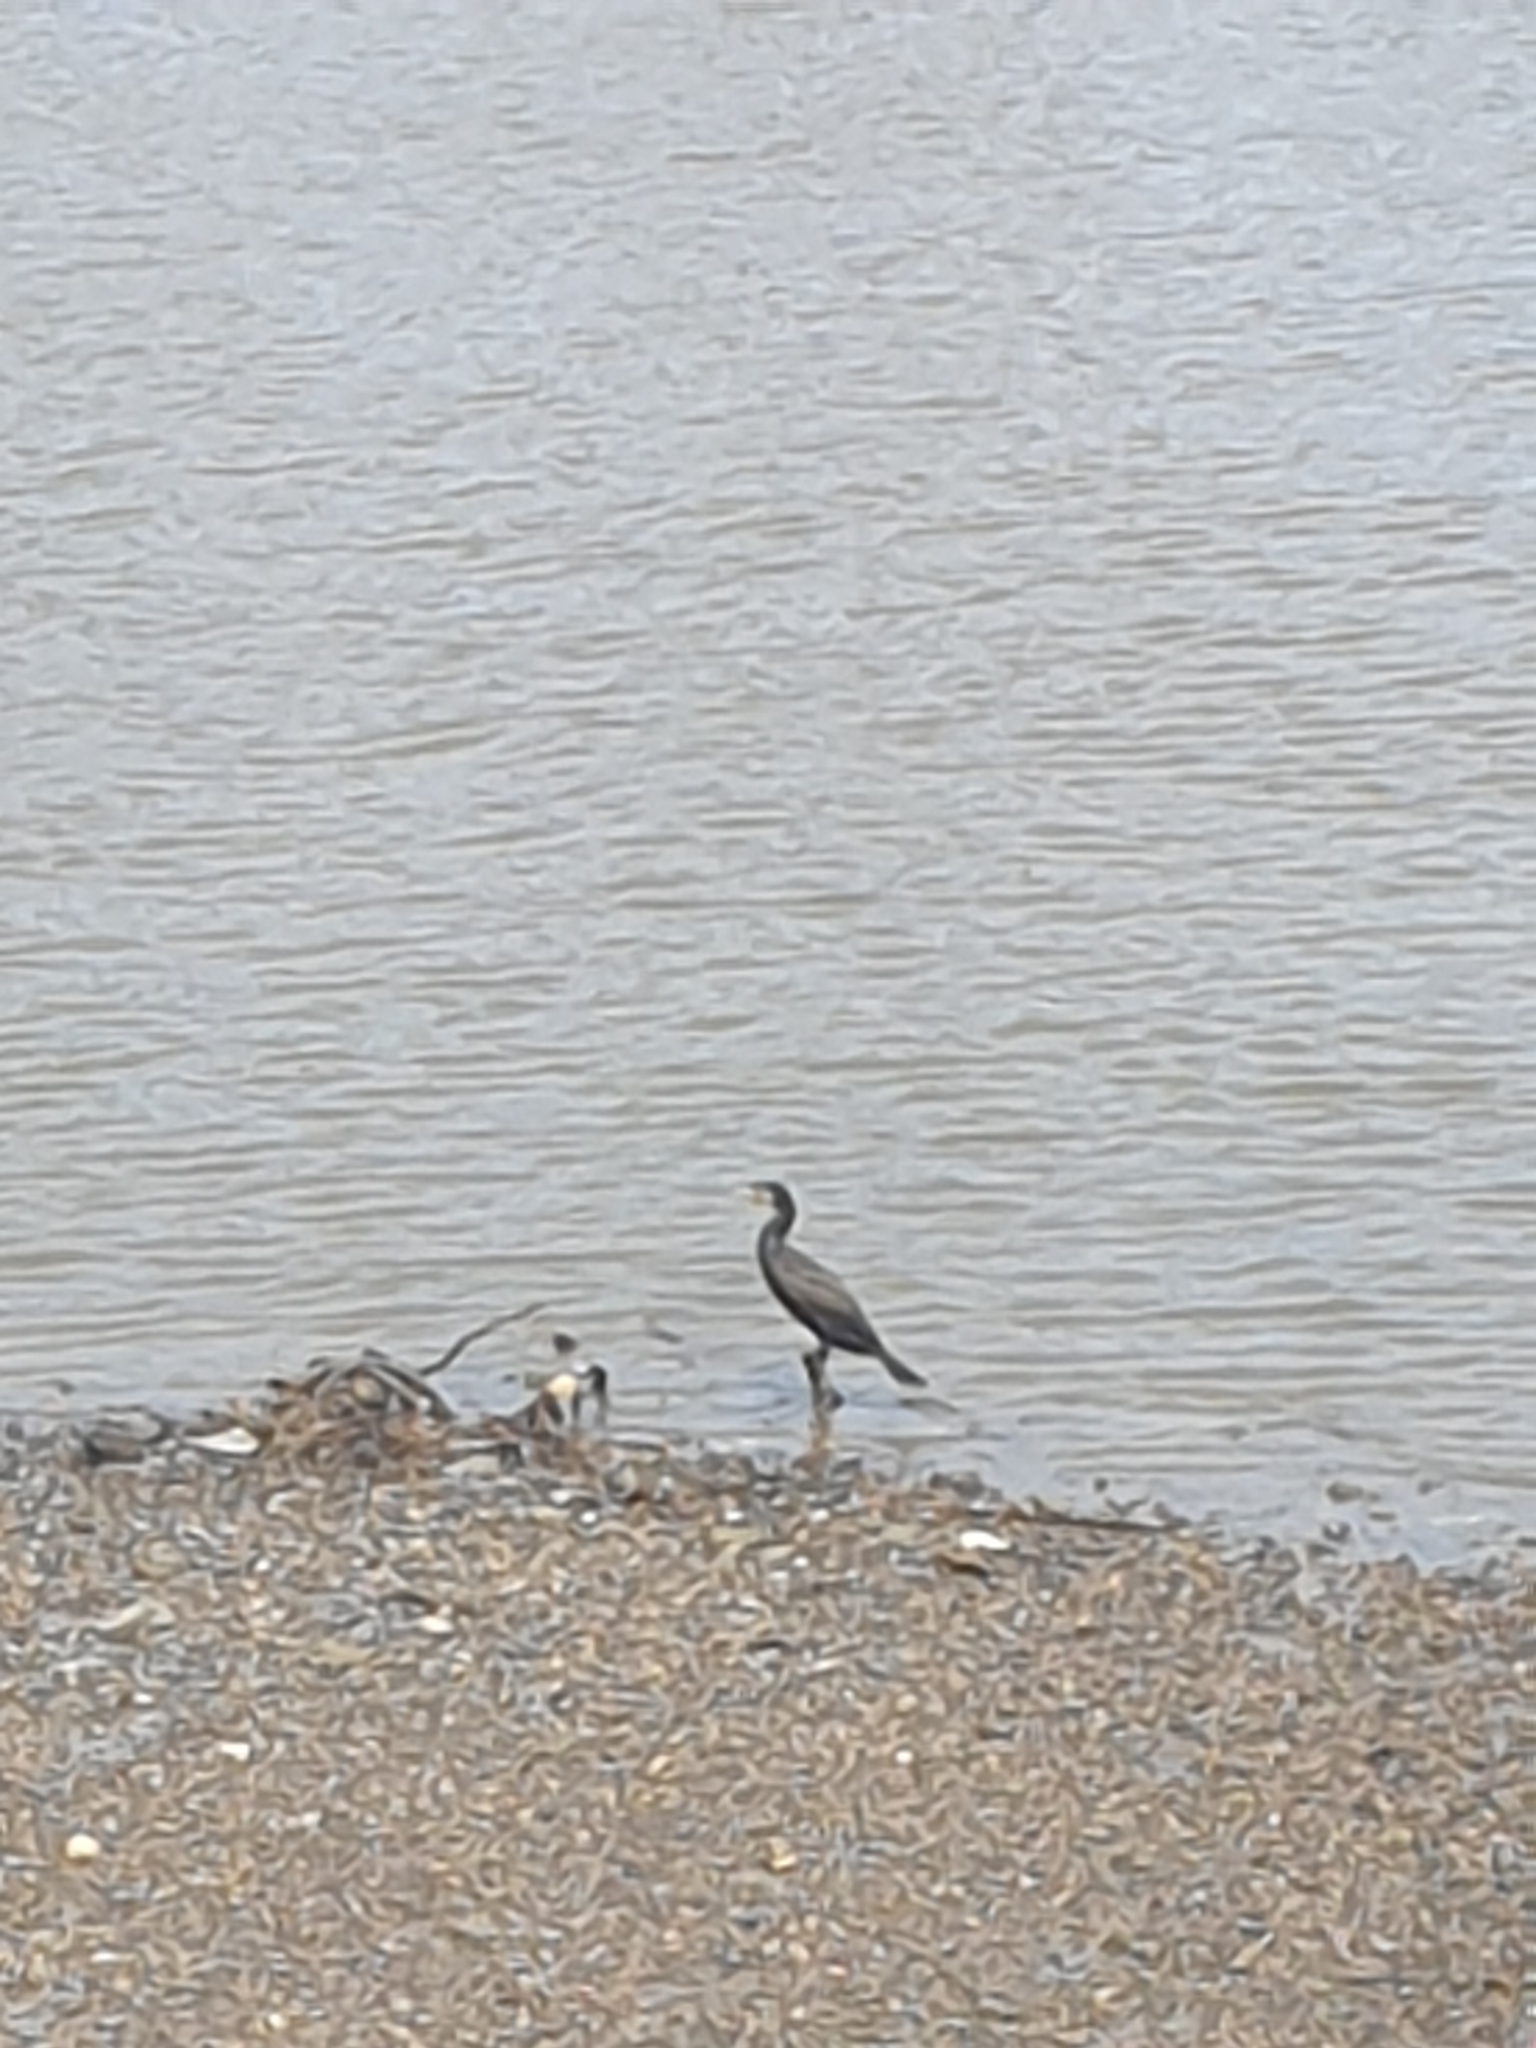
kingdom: Animalia
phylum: Chordata
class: Aves
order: Suliformes
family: Phalacrocoracidae
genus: Phalacrocorax
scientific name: Phalacrocorax carbo
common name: Great cormorant
